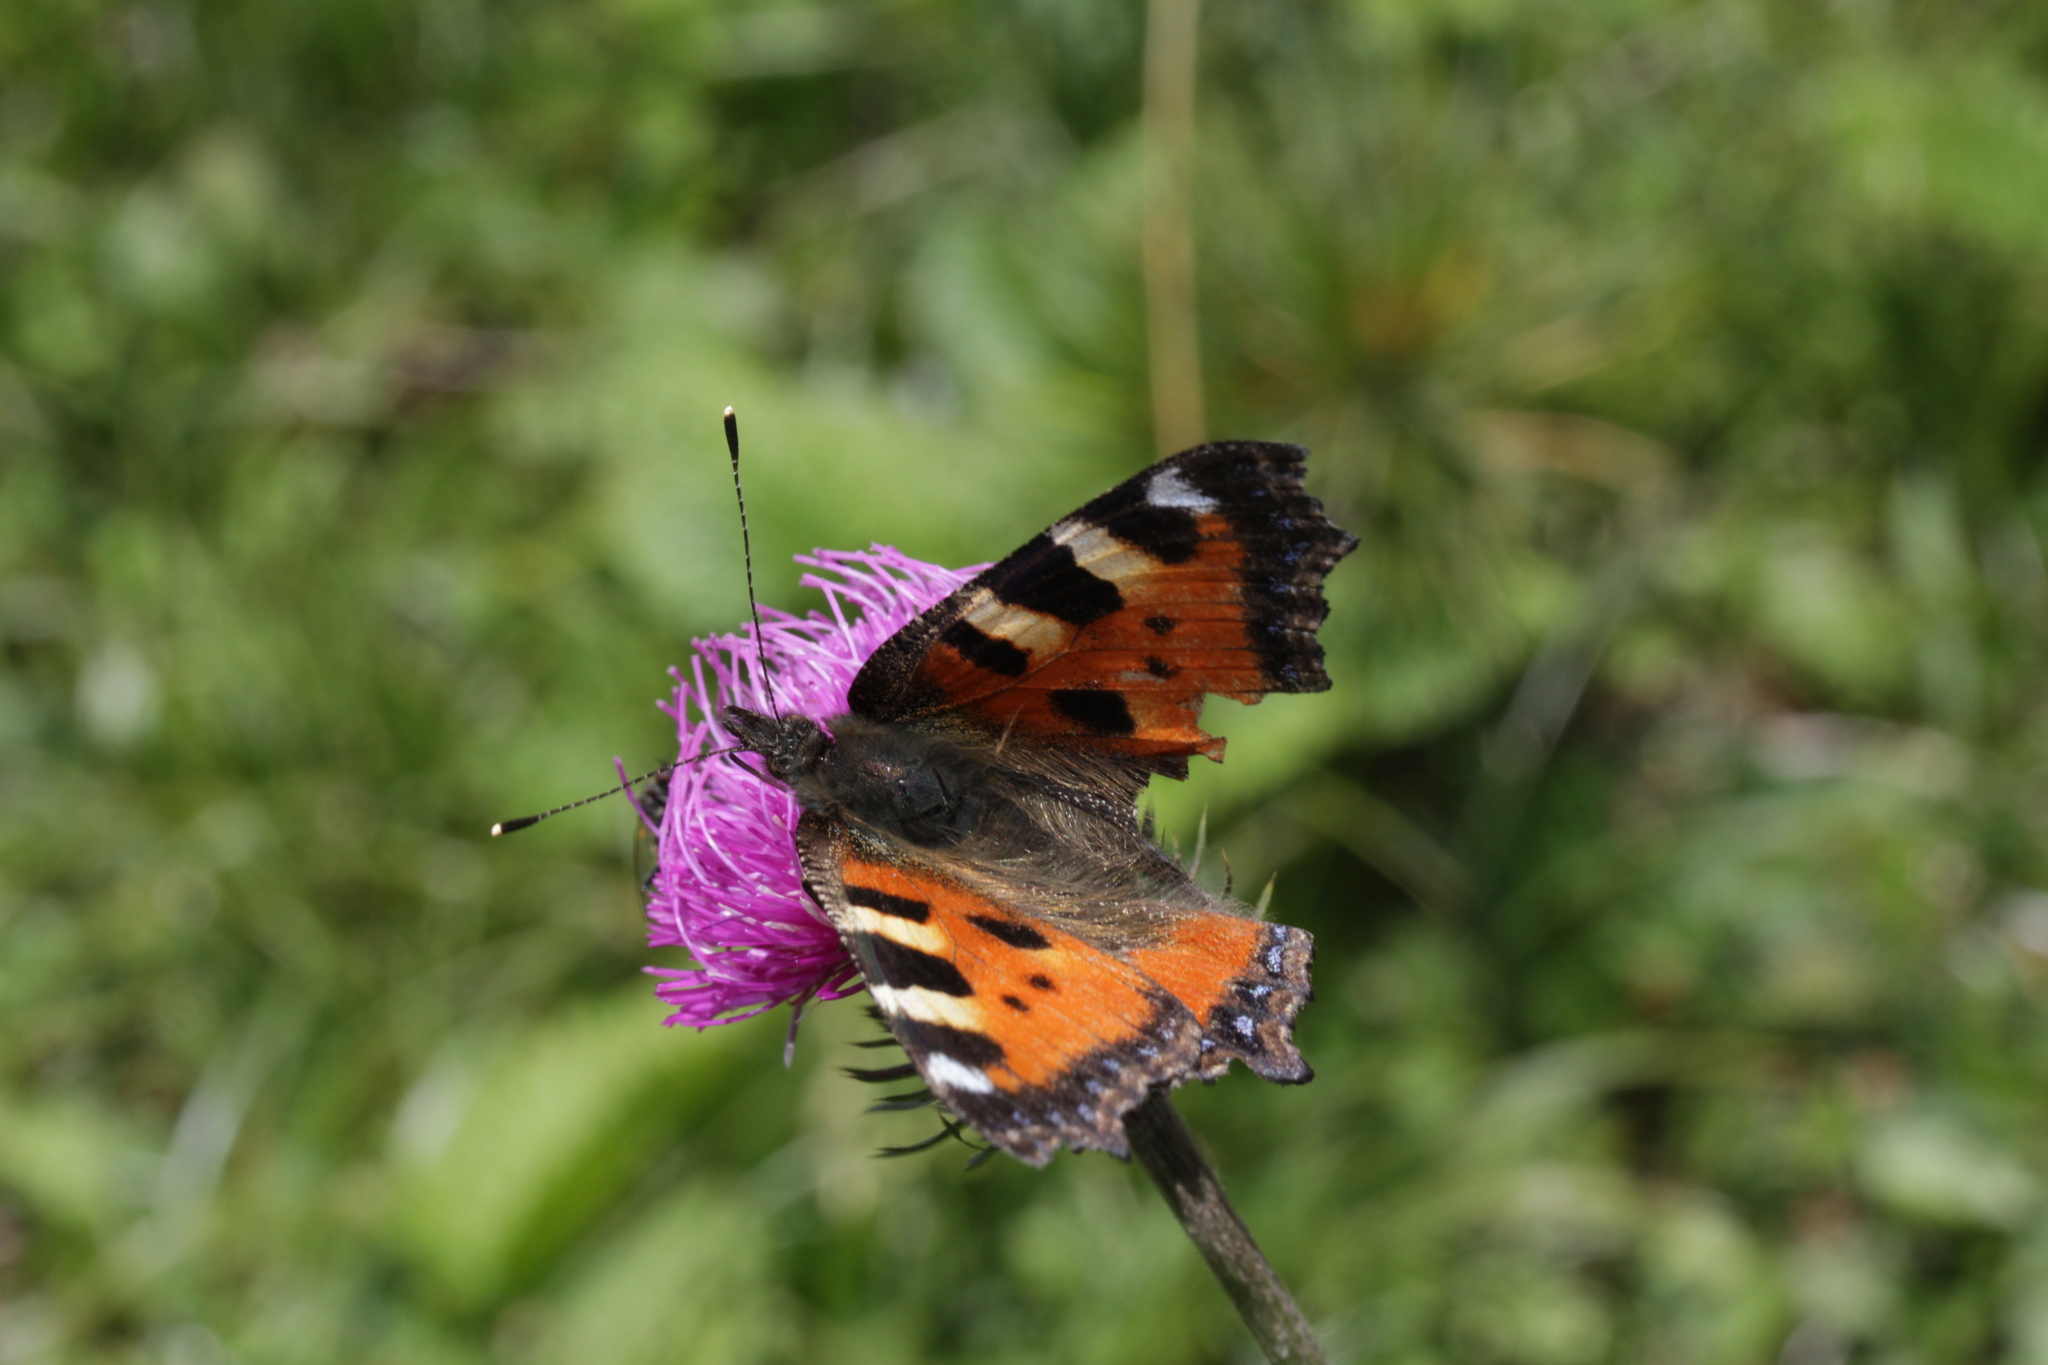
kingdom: Animalia
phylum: Arthropoda
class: Insecta
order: Lepidoptera
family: Nymphalidae
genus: Aglais
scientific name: Aglais urticae
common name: Small tortoiseshell
